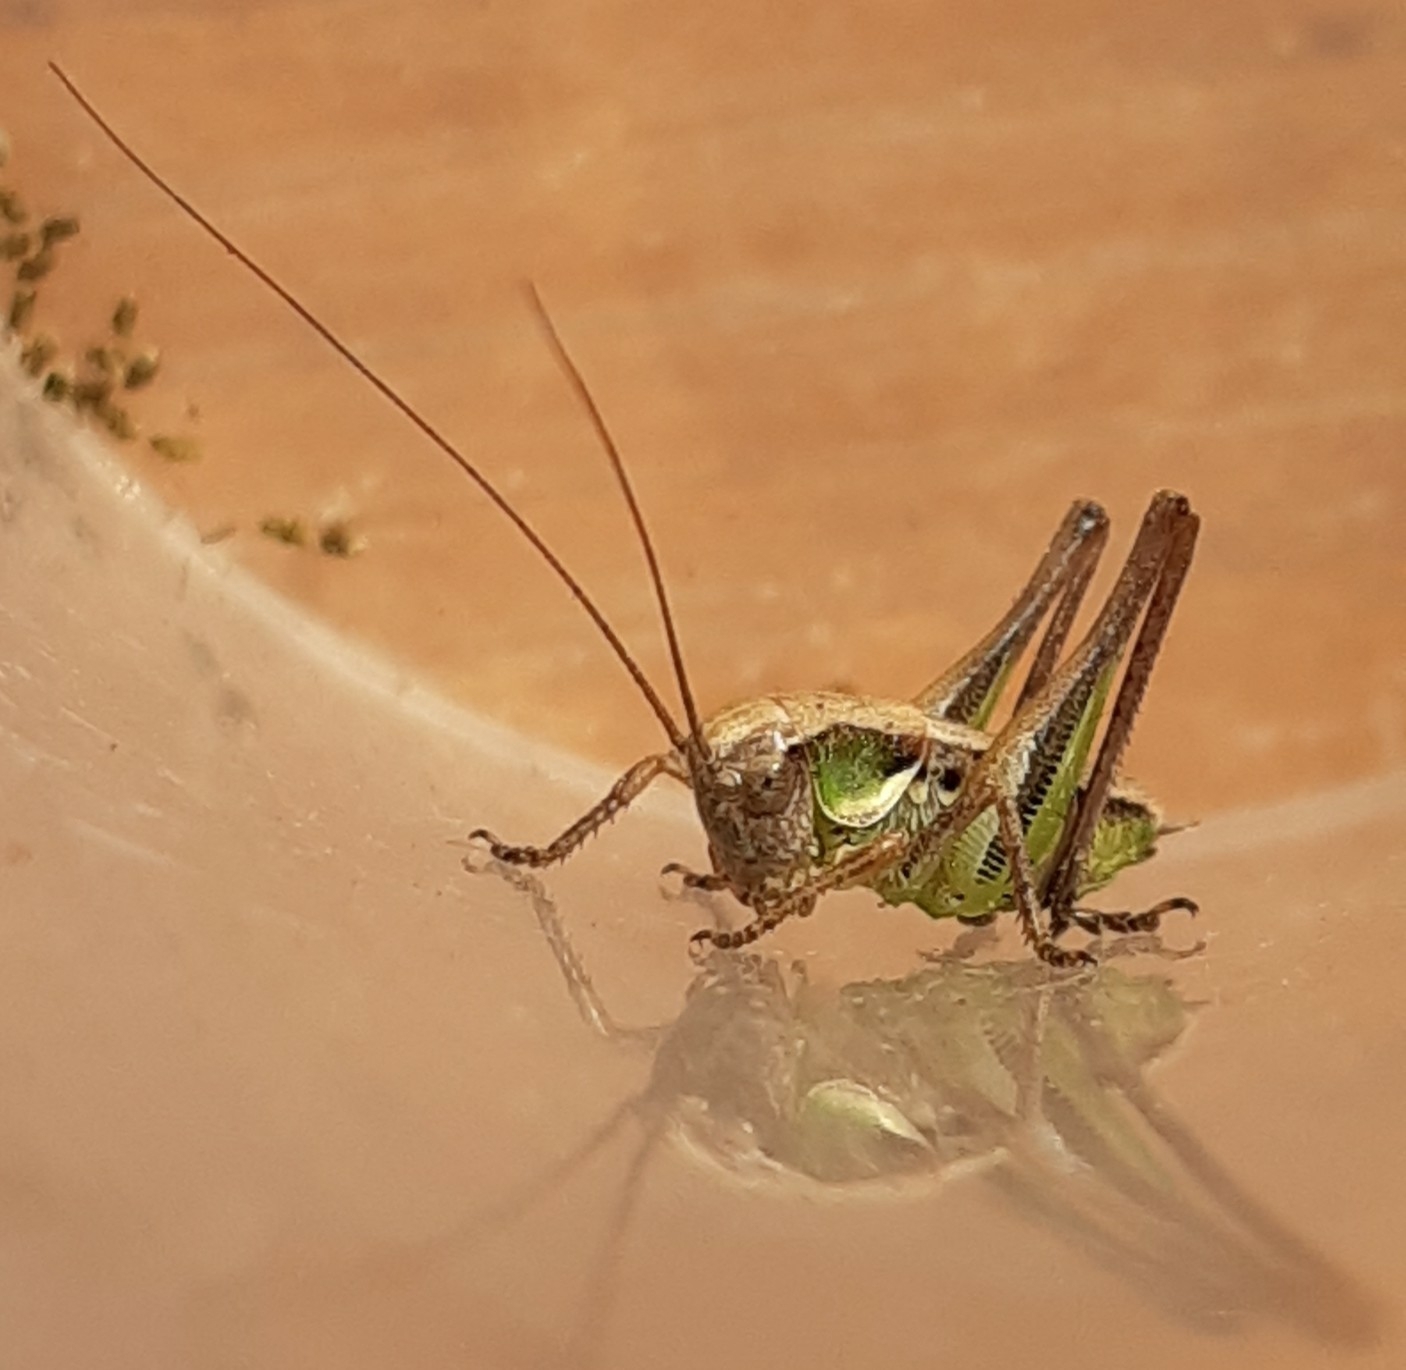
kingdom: Animalia
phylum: Arthropoda
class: Insecta
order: Orthoptera
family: Tettigoniidae
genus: Platycleis
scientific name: Platycleis grisea
